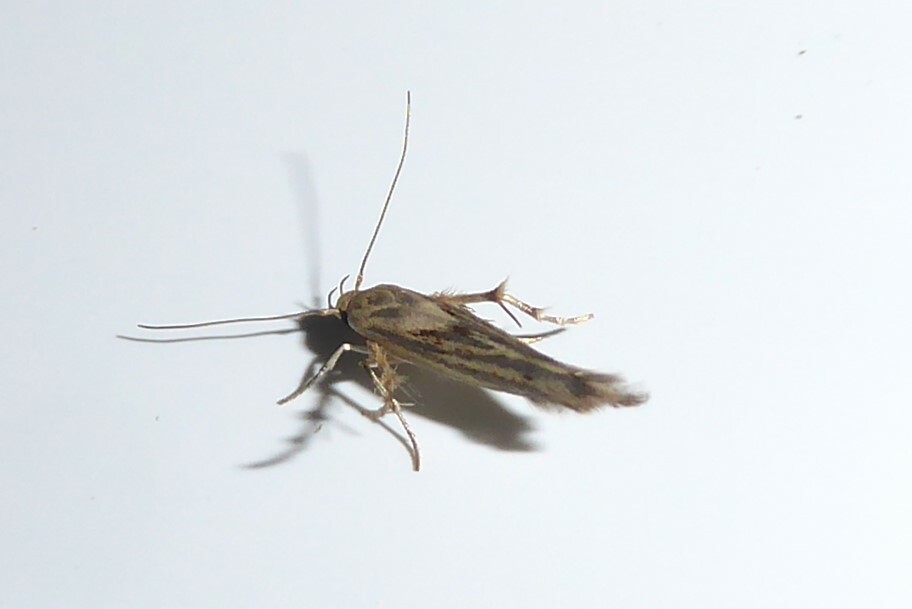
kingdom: Animalia
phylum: Arthropoda
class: Insecta
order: Lepidoptera
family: Stathmopodidae
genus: Stathmopoda
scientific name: Stathmopoda plumbiflua
